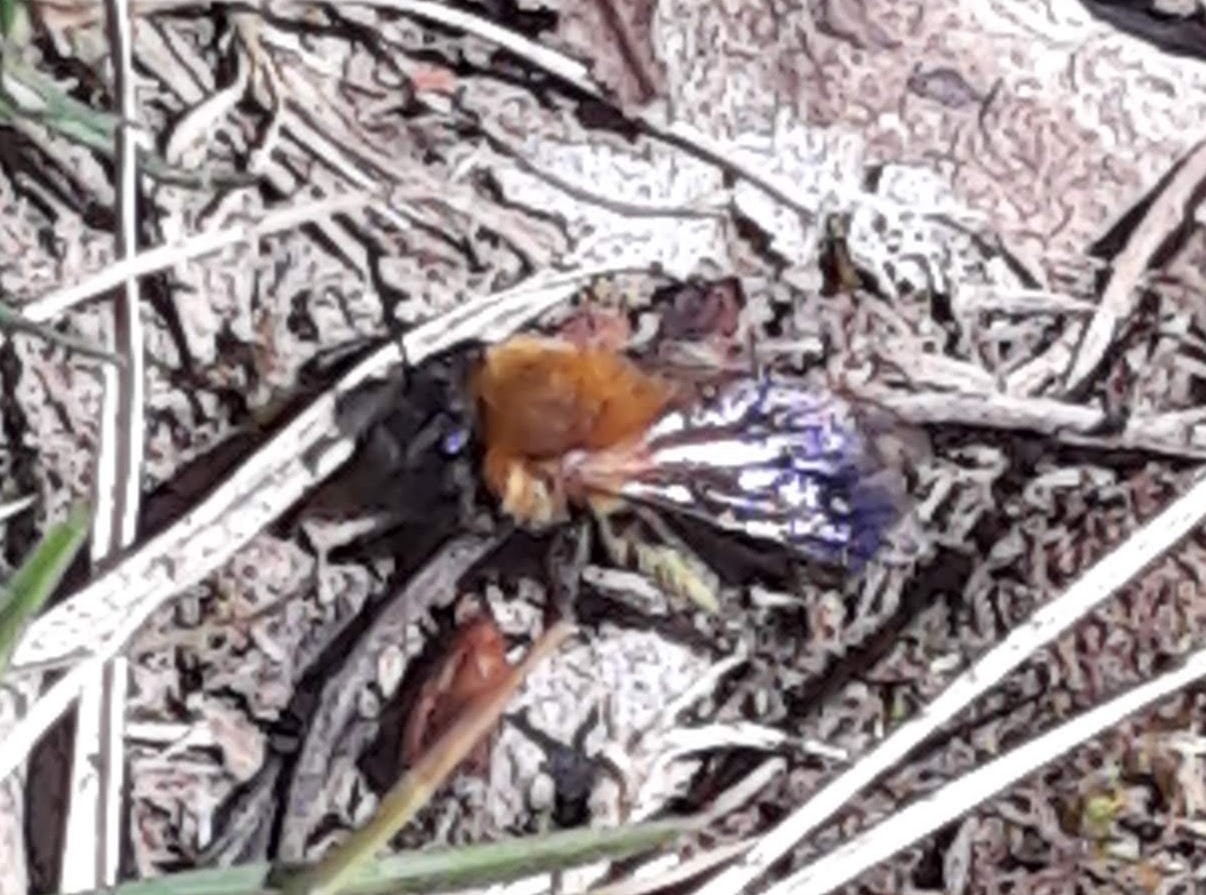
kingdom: Animalia
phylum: Arthropoda
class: Insecta
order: Hymenoptera
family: Andrenidae
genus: Andrena
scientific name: Andrena milwaukeensis
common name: Milwaukee mining bee
